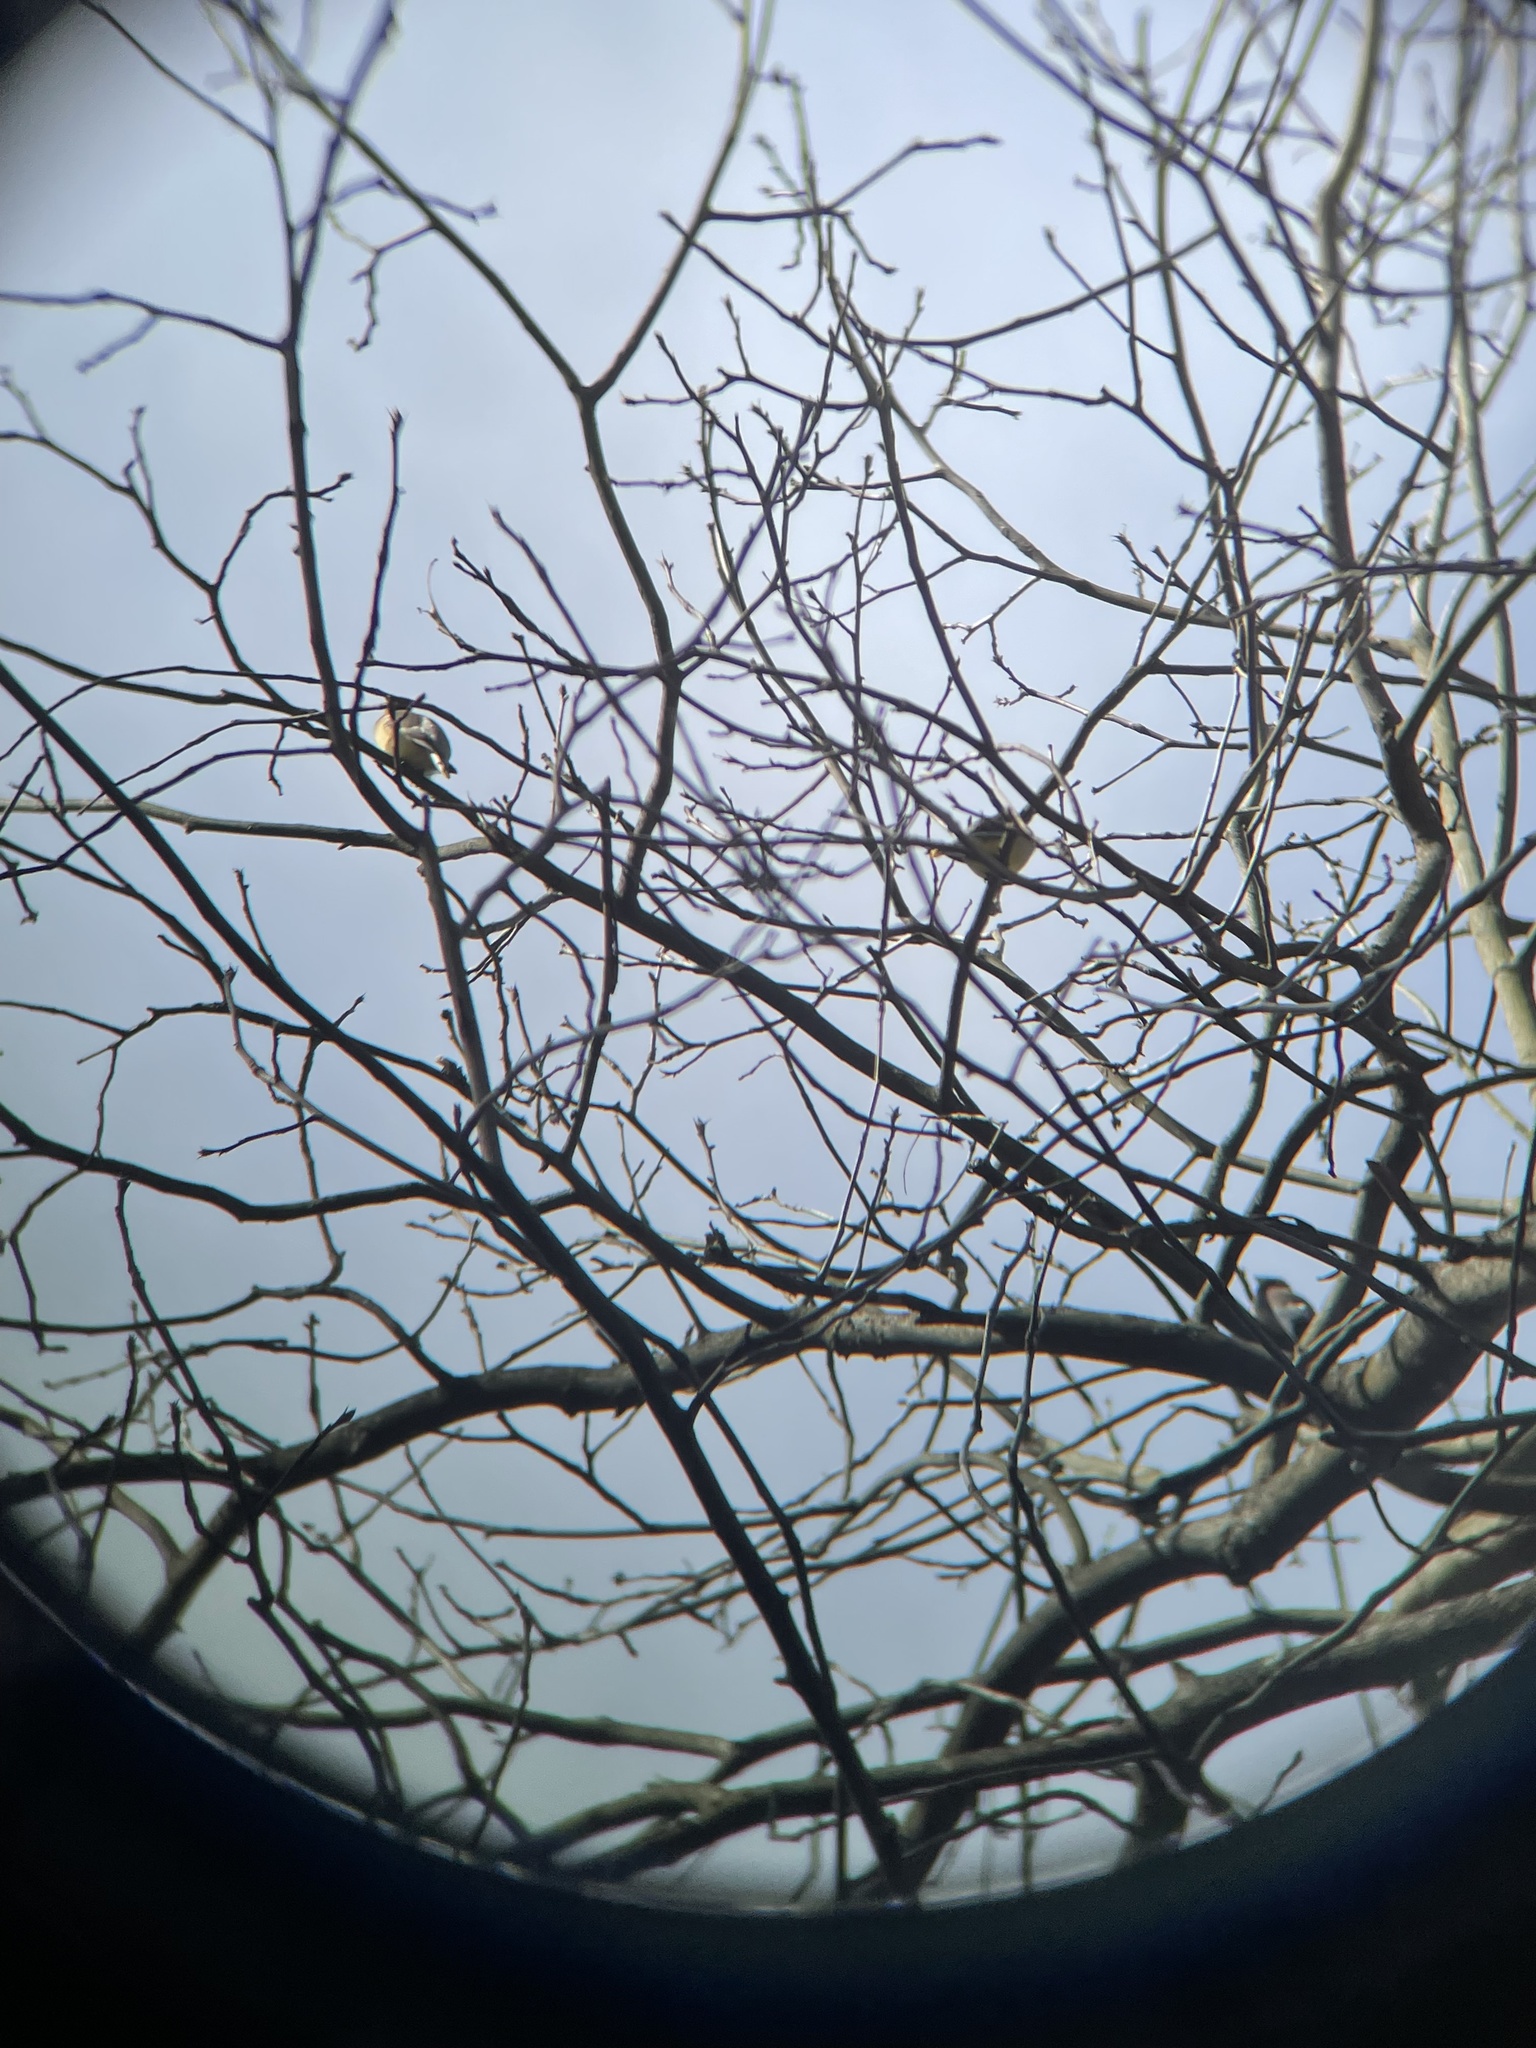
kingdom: Animalia
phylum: Chordata
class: Aves
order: Passeriformes
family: Bombycillidae
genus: Bombycilla
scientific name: Bombycilla cedrorum
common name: Cedar waxwing
